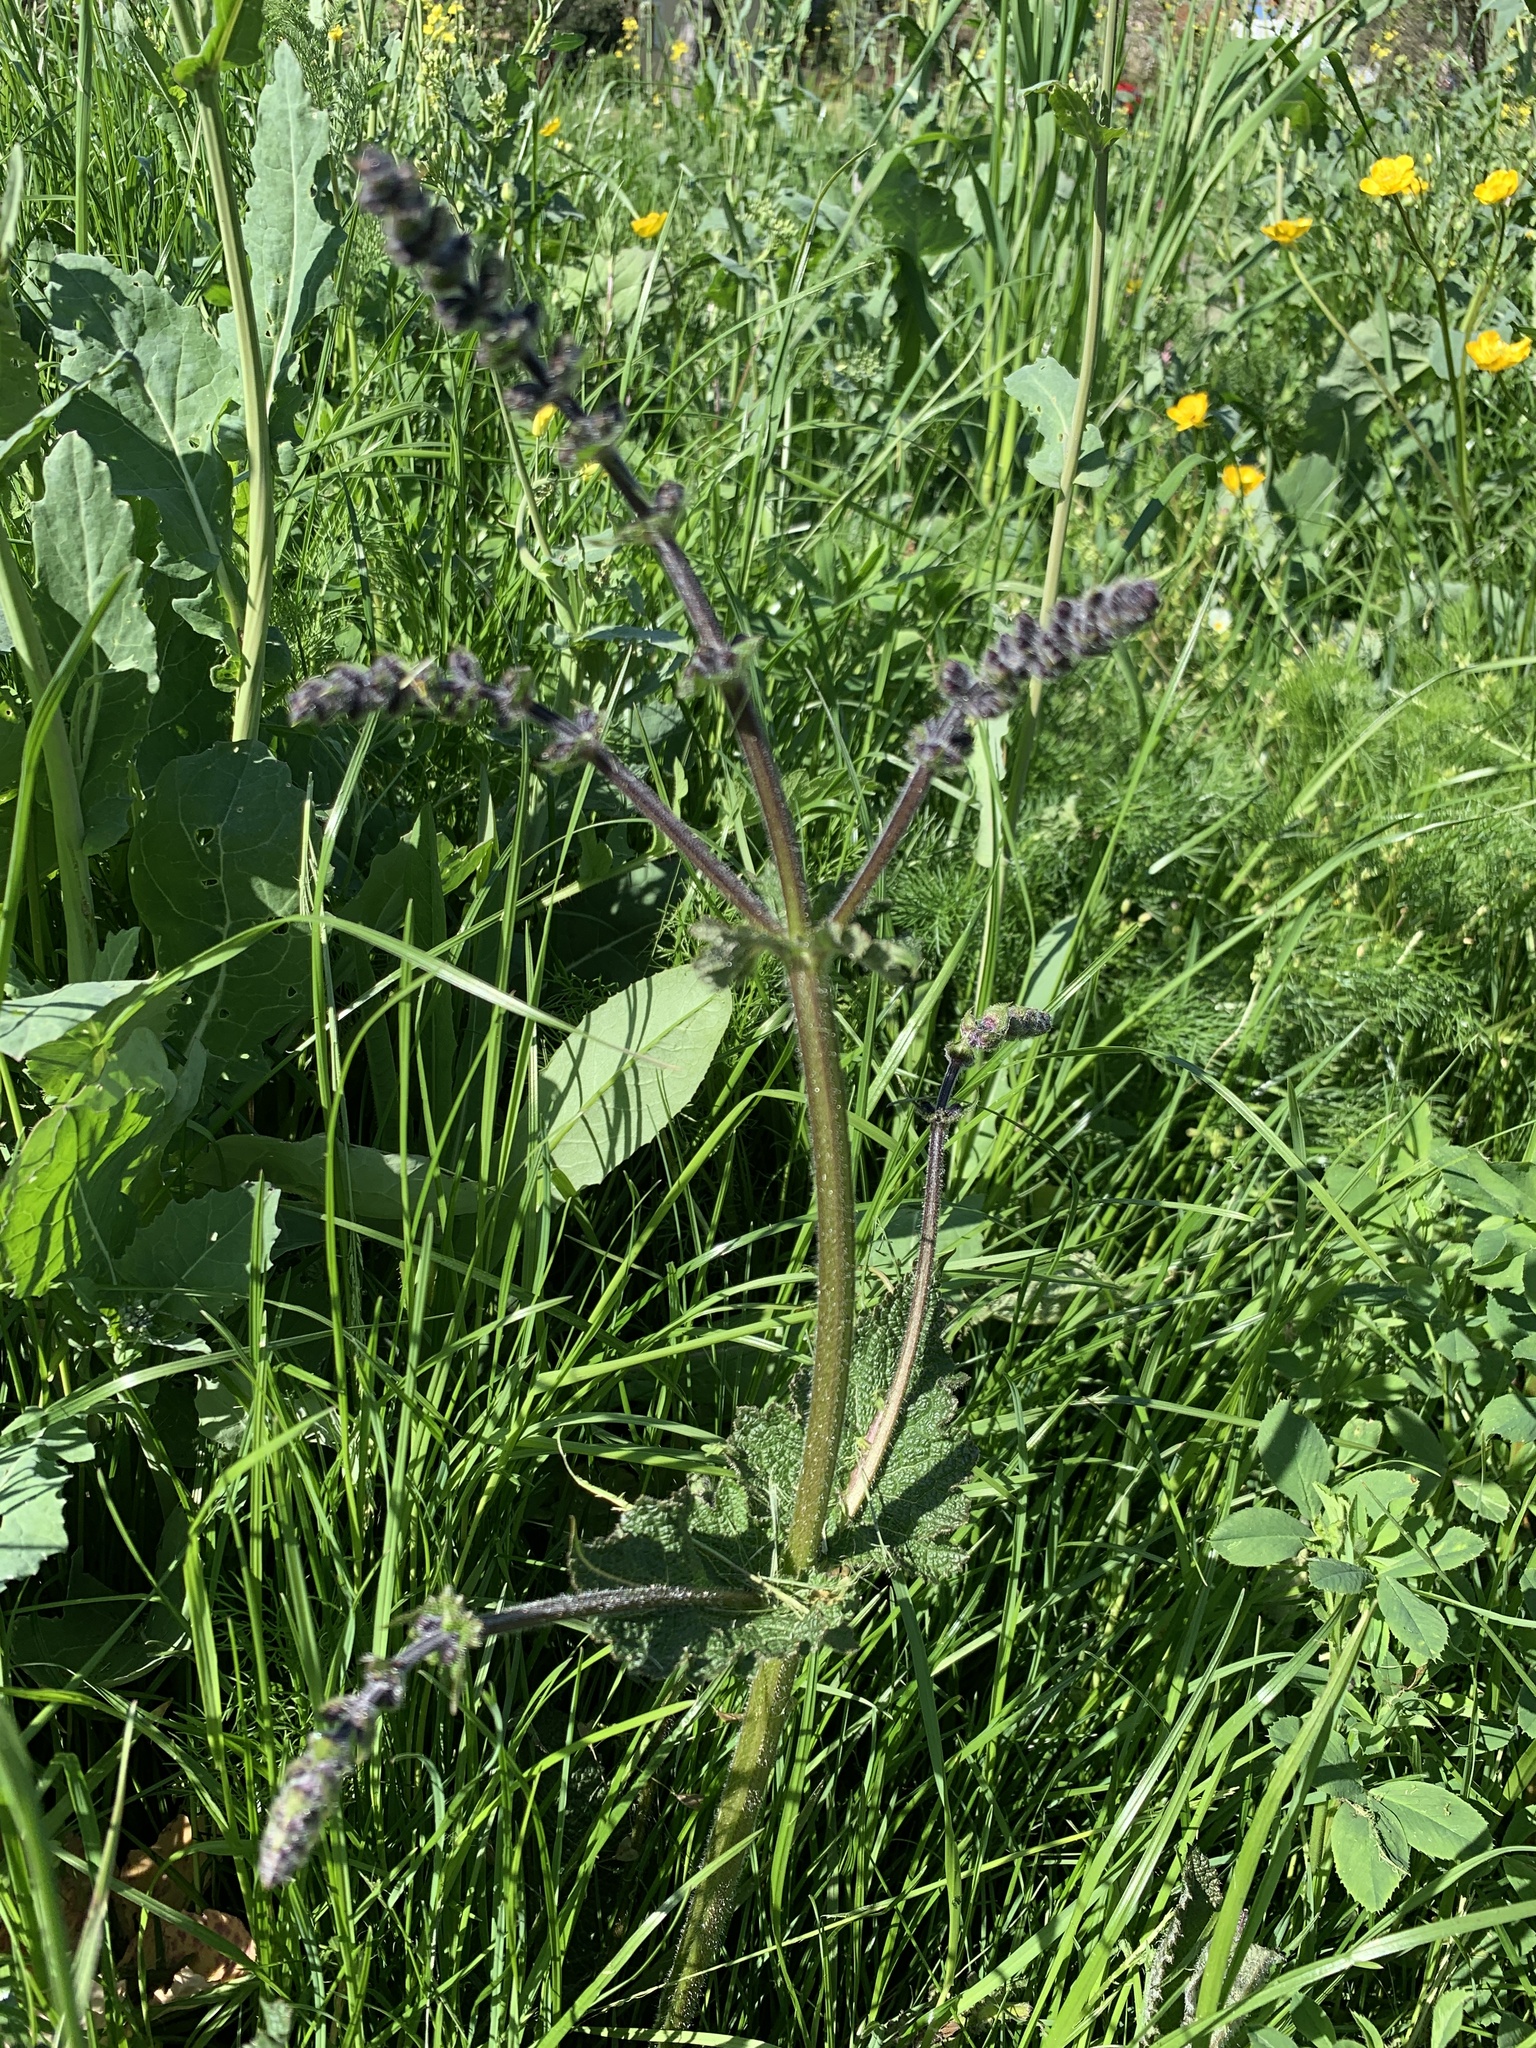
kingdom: Plantae
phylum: Tracheophyta
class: Magnoliopsida
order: Lamiales
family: Lamiaceae
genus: Salvia
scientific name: Salvia pratensis
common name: Meadow sage
